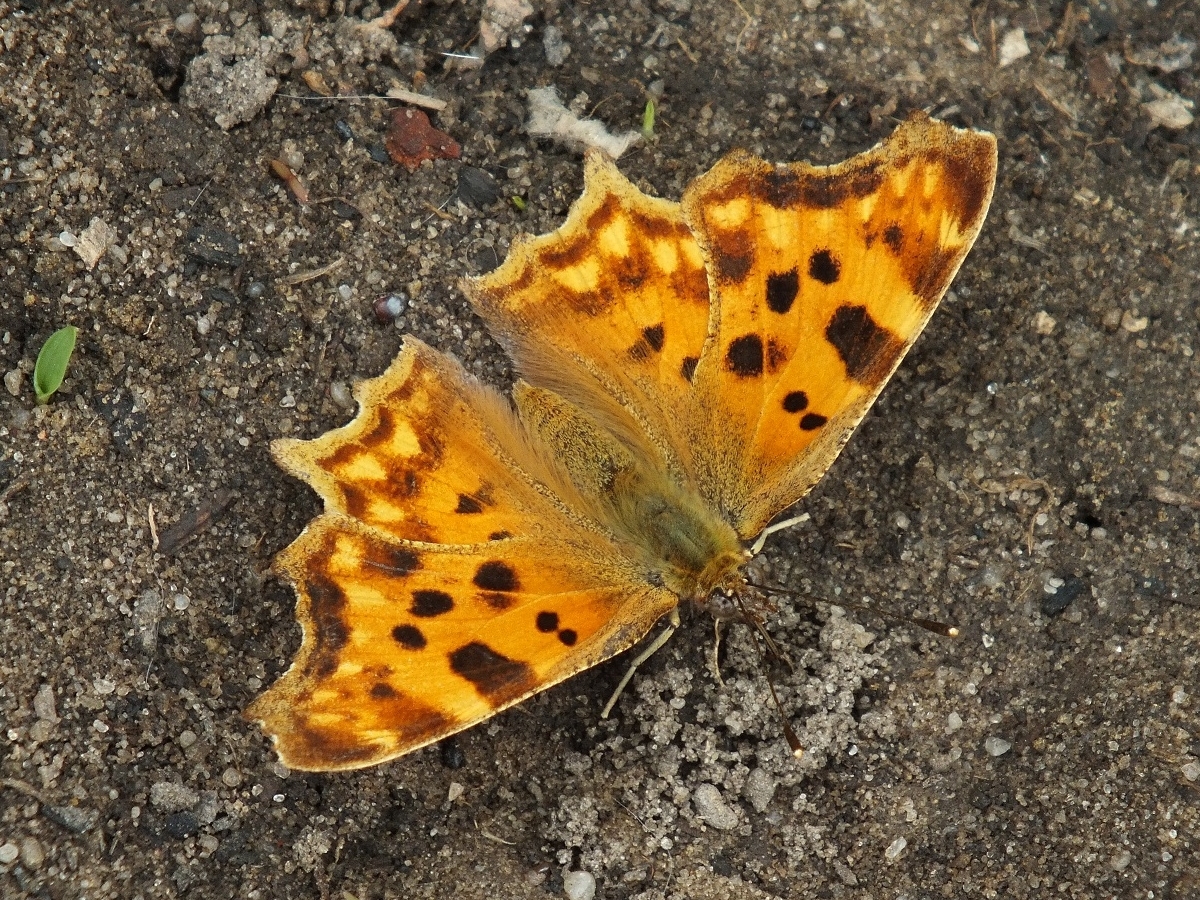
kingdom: Animalia
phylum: Arthropoda
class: Insecta
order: Lepidoptera
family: Nymphalidae
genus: Polygonia
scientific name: Polygonia c-album
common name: Comma
